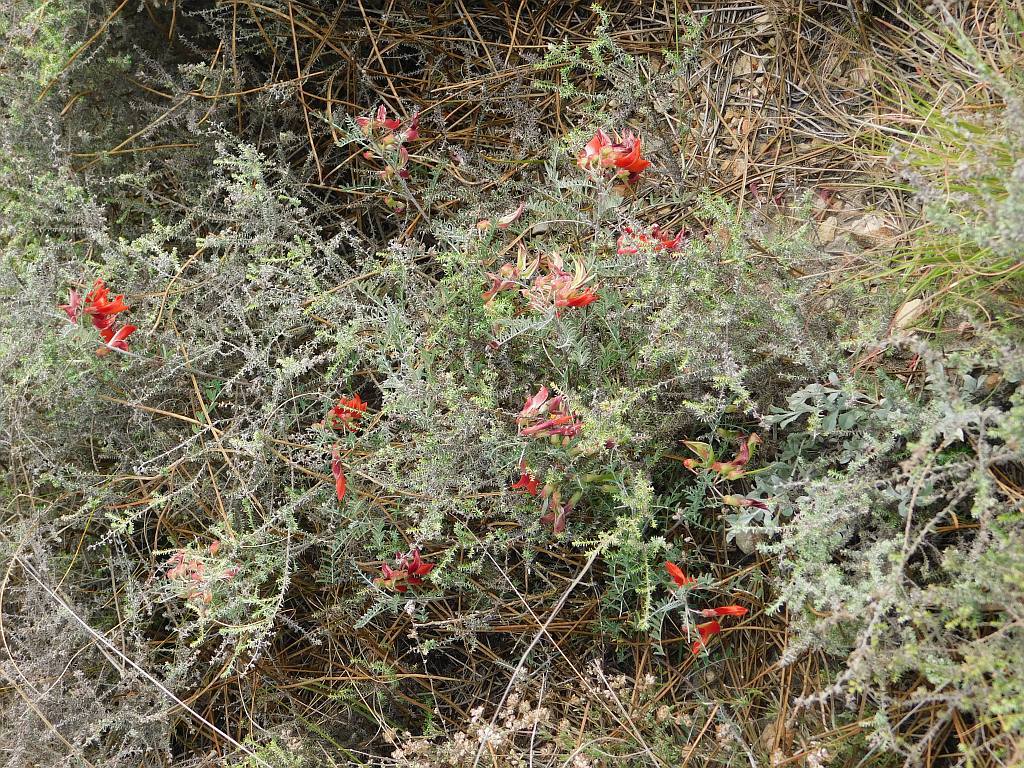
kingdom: Plantae
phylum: Tracheophyta
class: Magnoliopsida
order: Fabales
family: Fabaceae
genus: Lessertia
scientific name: Lessertia frutescens
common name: Balloon-pea
